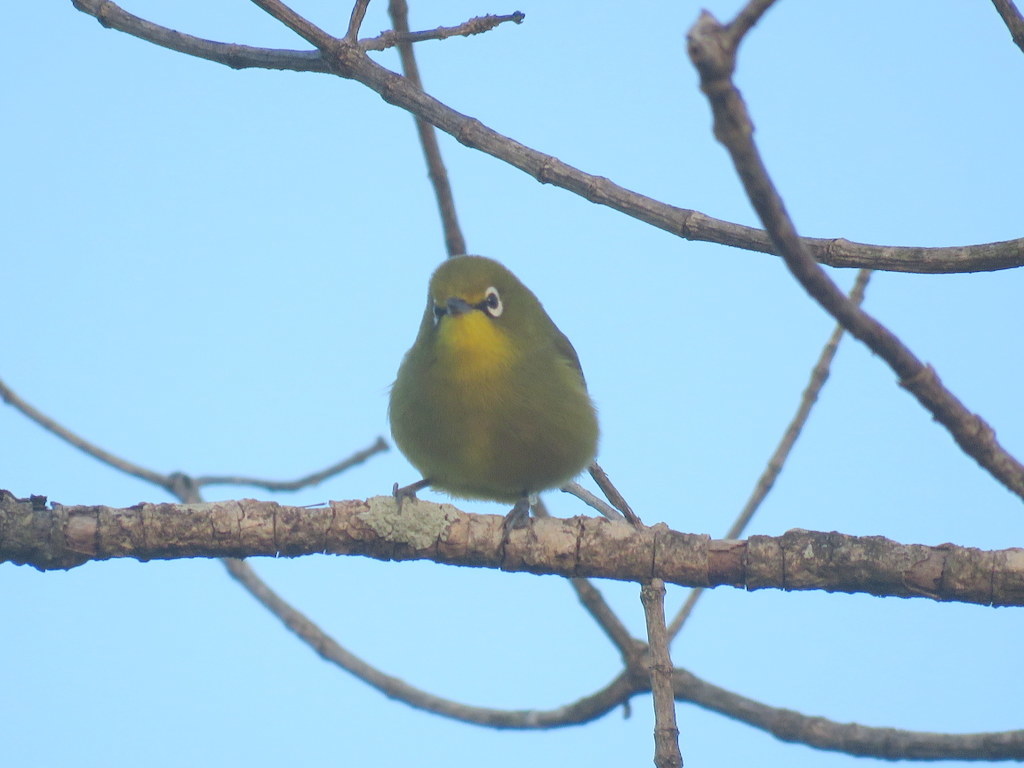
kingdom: Animalia
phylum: Chordata
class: Aves
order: Passeriformes
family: Zosteropidae
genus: Zosterops
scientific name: Zosterops virens
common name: Cape white-eye
